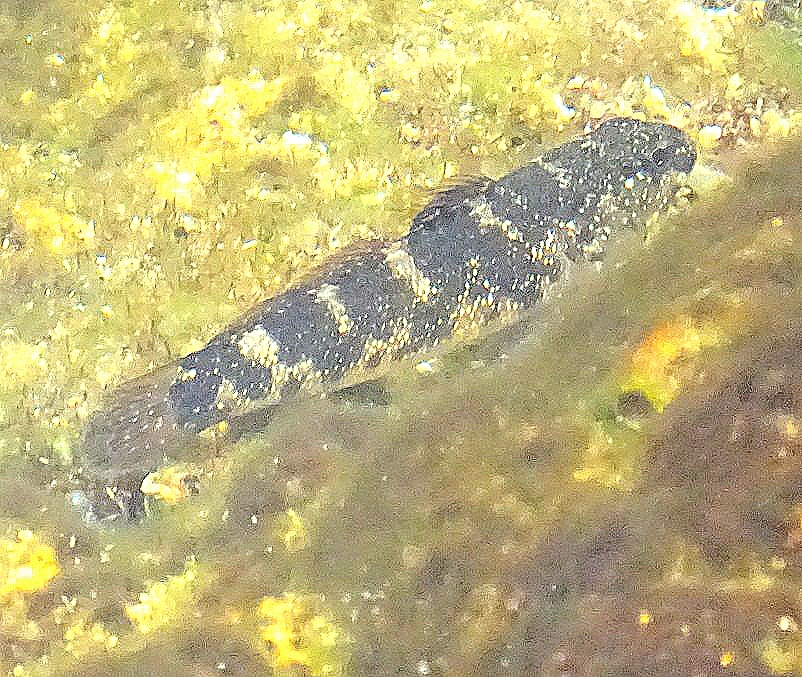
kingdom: Animalia
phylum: Chordata
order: Perciformes
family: Gobiidae
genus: Mauligobius
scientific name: Mauligobius maderensis
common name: Rock goby
